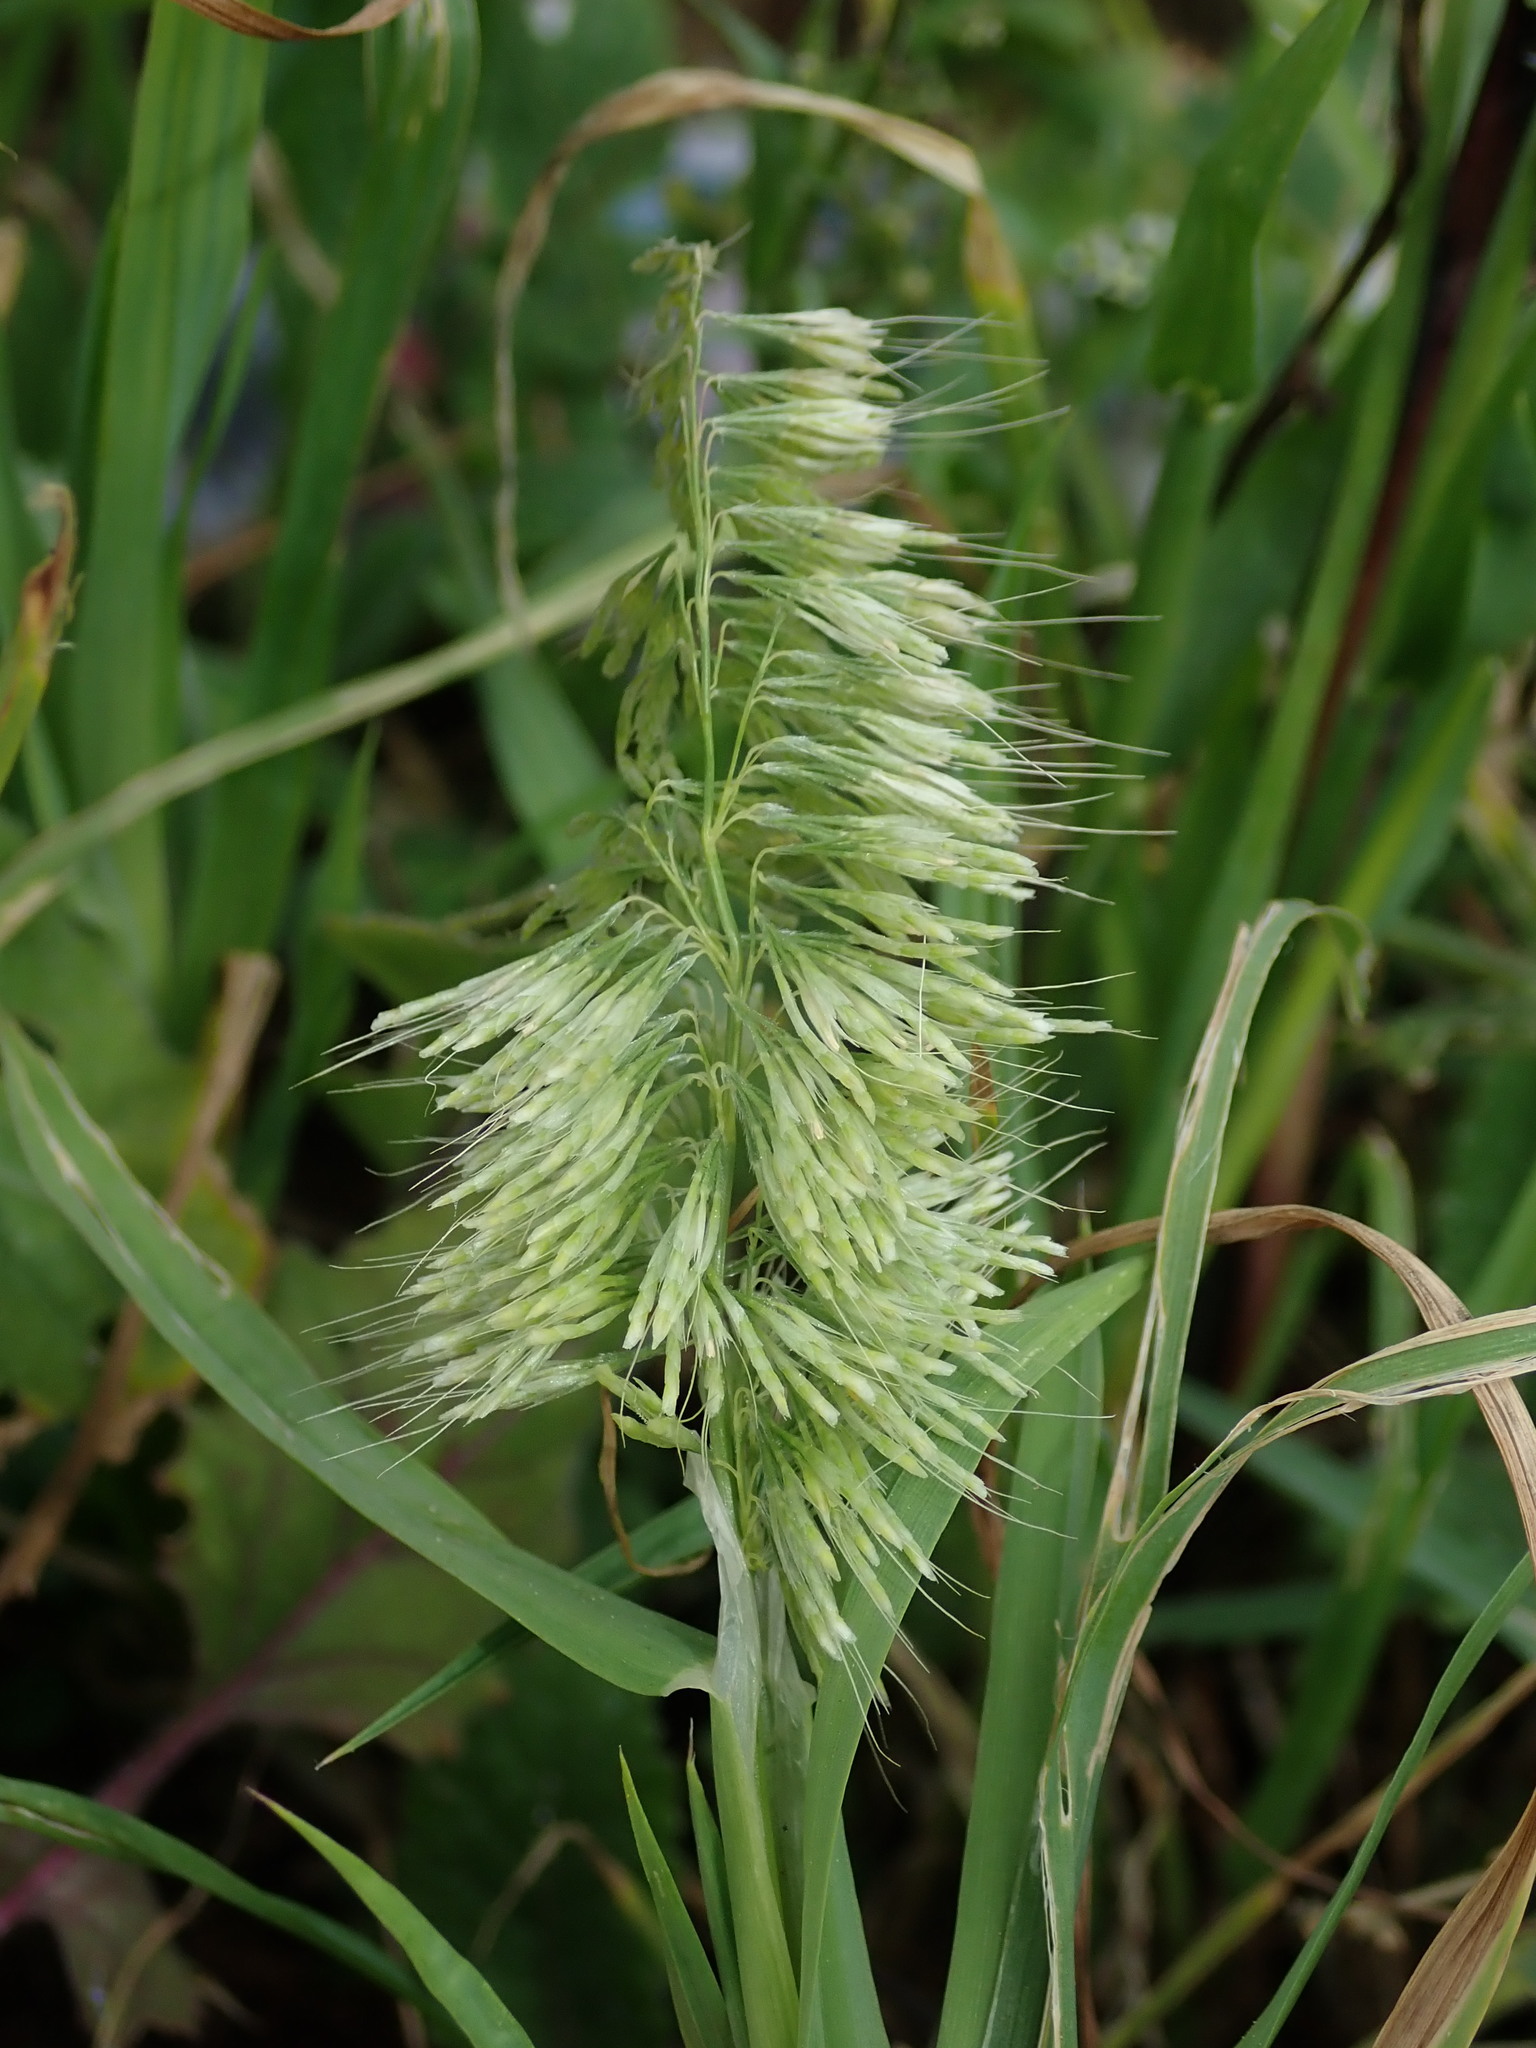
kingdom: Plantae
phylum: Tracheophyta
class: Liliopsida
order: Poales
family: Poaceae
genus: Lamarckia
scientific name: Lamarckia aurea
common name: Golden dog's-tail
